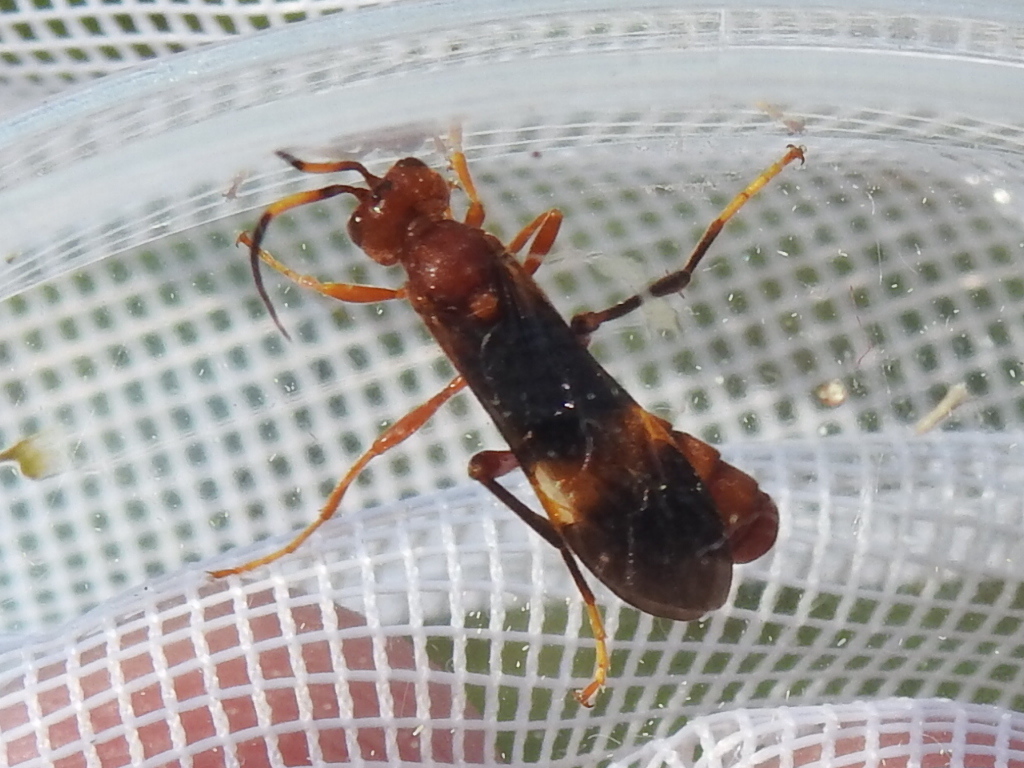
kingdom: Animalia
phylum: Arthropoda
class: Insecta
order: Hymenoptera
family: Ichneumonidae
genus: Trogomorpha
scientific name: Trogomorpha arrogans
